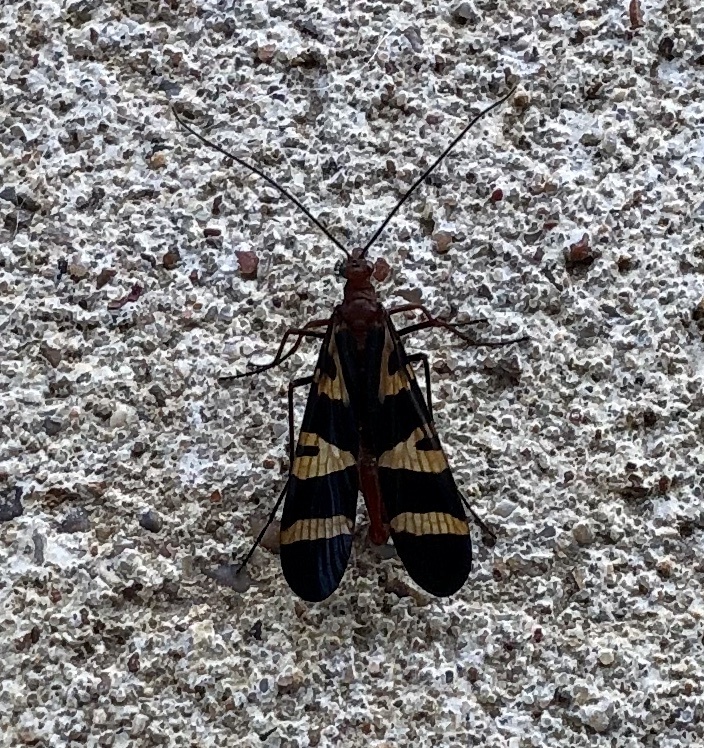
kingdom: Animalia
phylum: Arthropoda
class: Insecta
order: Mecoptera
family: Panorpidae
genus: Panorpa
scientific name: Panorpa nuptialis
